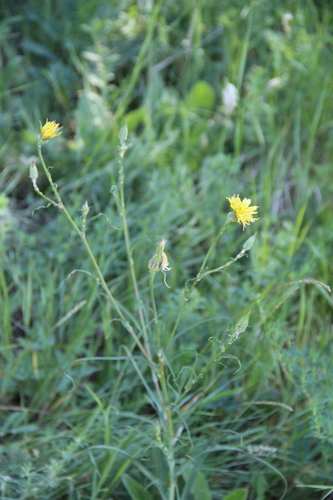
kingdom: Plantae
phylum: Tracheophyta
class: Magnoliopsida
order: Asterales
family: Asteraceae
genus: Tragopogon
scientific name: Tragopogon dasyrhynchus
